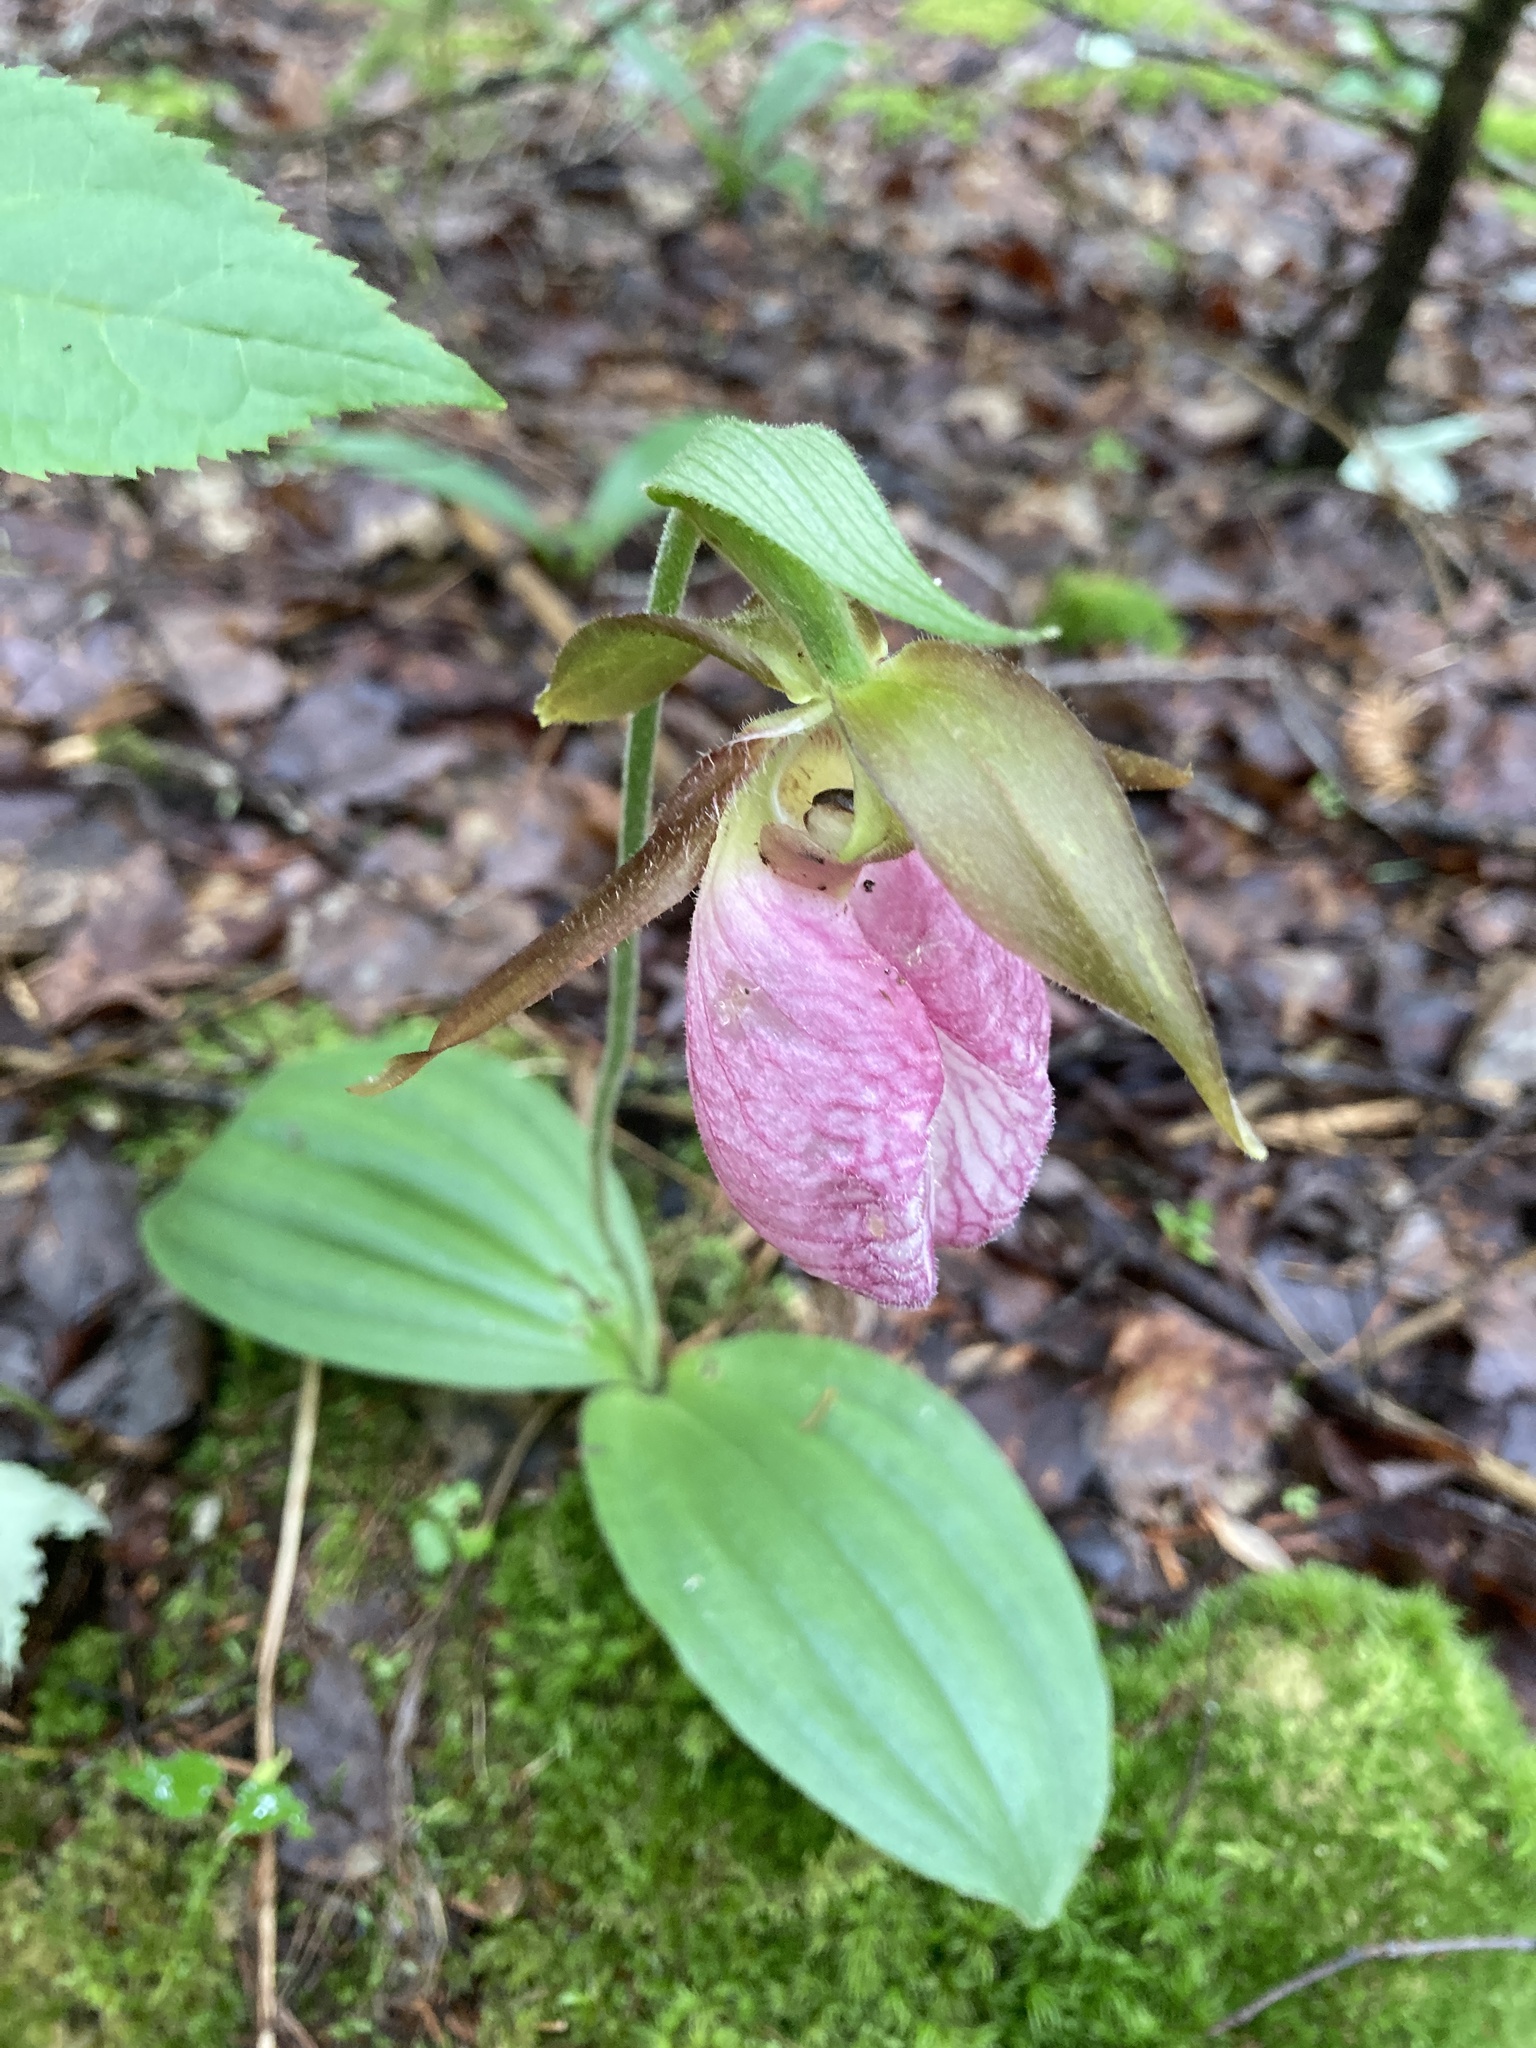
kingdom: Plantae
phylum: Tracheophyta
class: Liliopsida
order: Asparagales
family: Orchidaceae
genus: Cypripedium
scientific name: Cypripedium acaule
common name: Pink lady's-slipper
